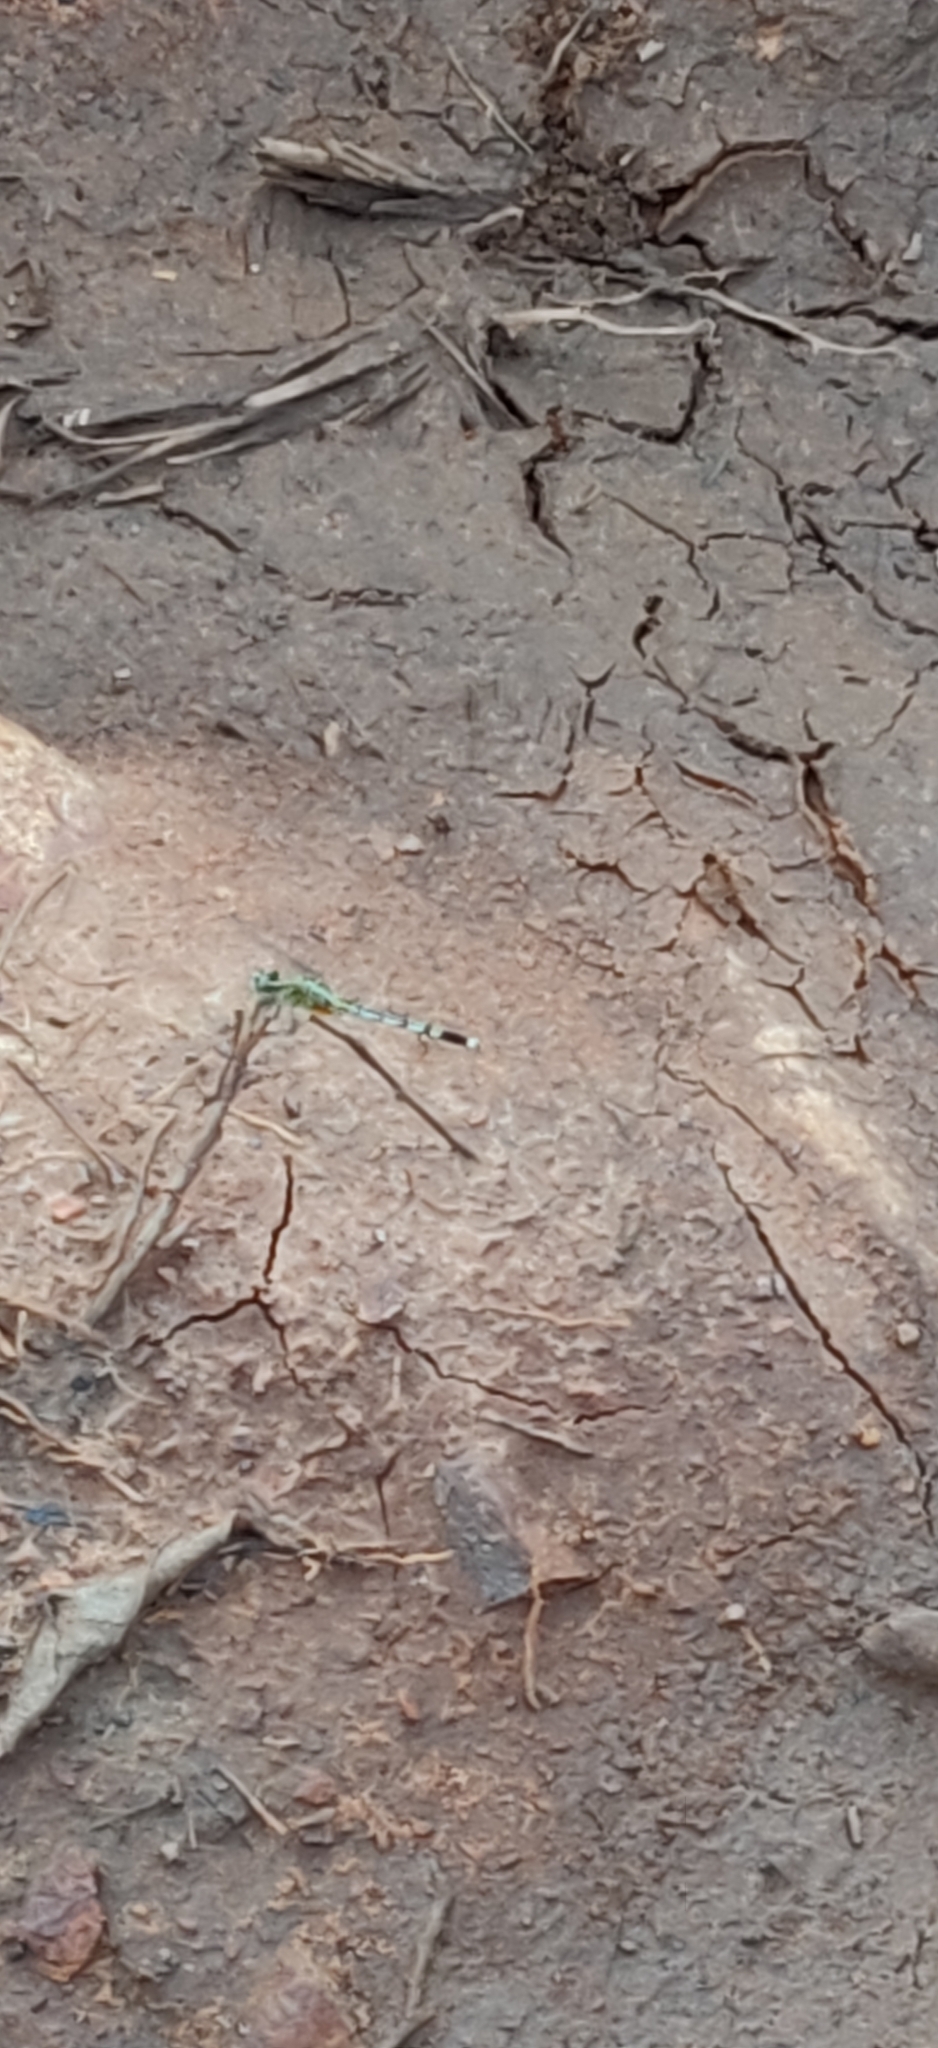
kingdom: Animalia
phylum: Arthropoda
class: Insecta
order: Odonata
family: Libellulidae
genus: Diplacodes
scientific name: Diplacodes trivialis
